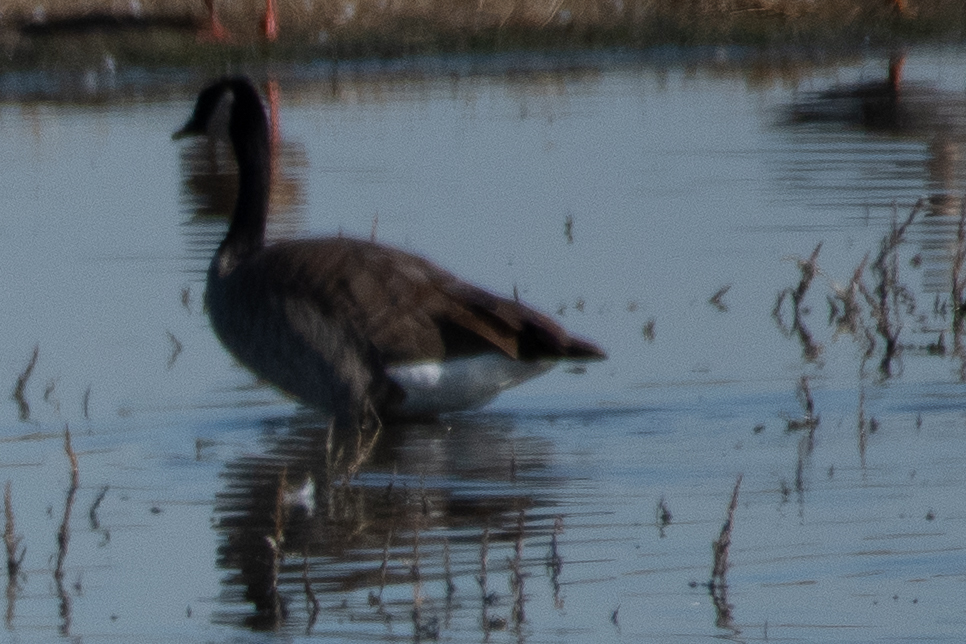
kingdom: Animalia
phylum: Chordata
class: Aves
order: Anseriformes
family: Anatidae
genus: Branta
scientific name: Branta canadensis
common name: Canada goose
